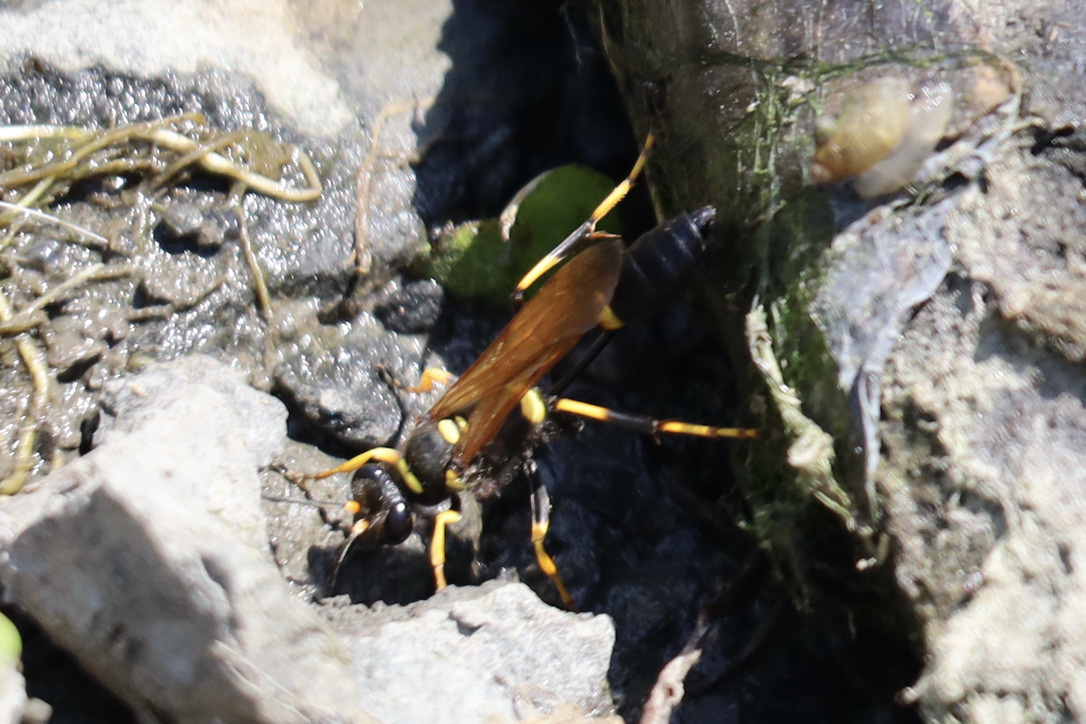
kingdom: Animalia
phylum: Arthropoda
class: Insecta
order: Hymenoptera
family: Sphecidae
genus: Sceliphron
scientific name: Sceliphron caementarium
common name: Mud dauber
